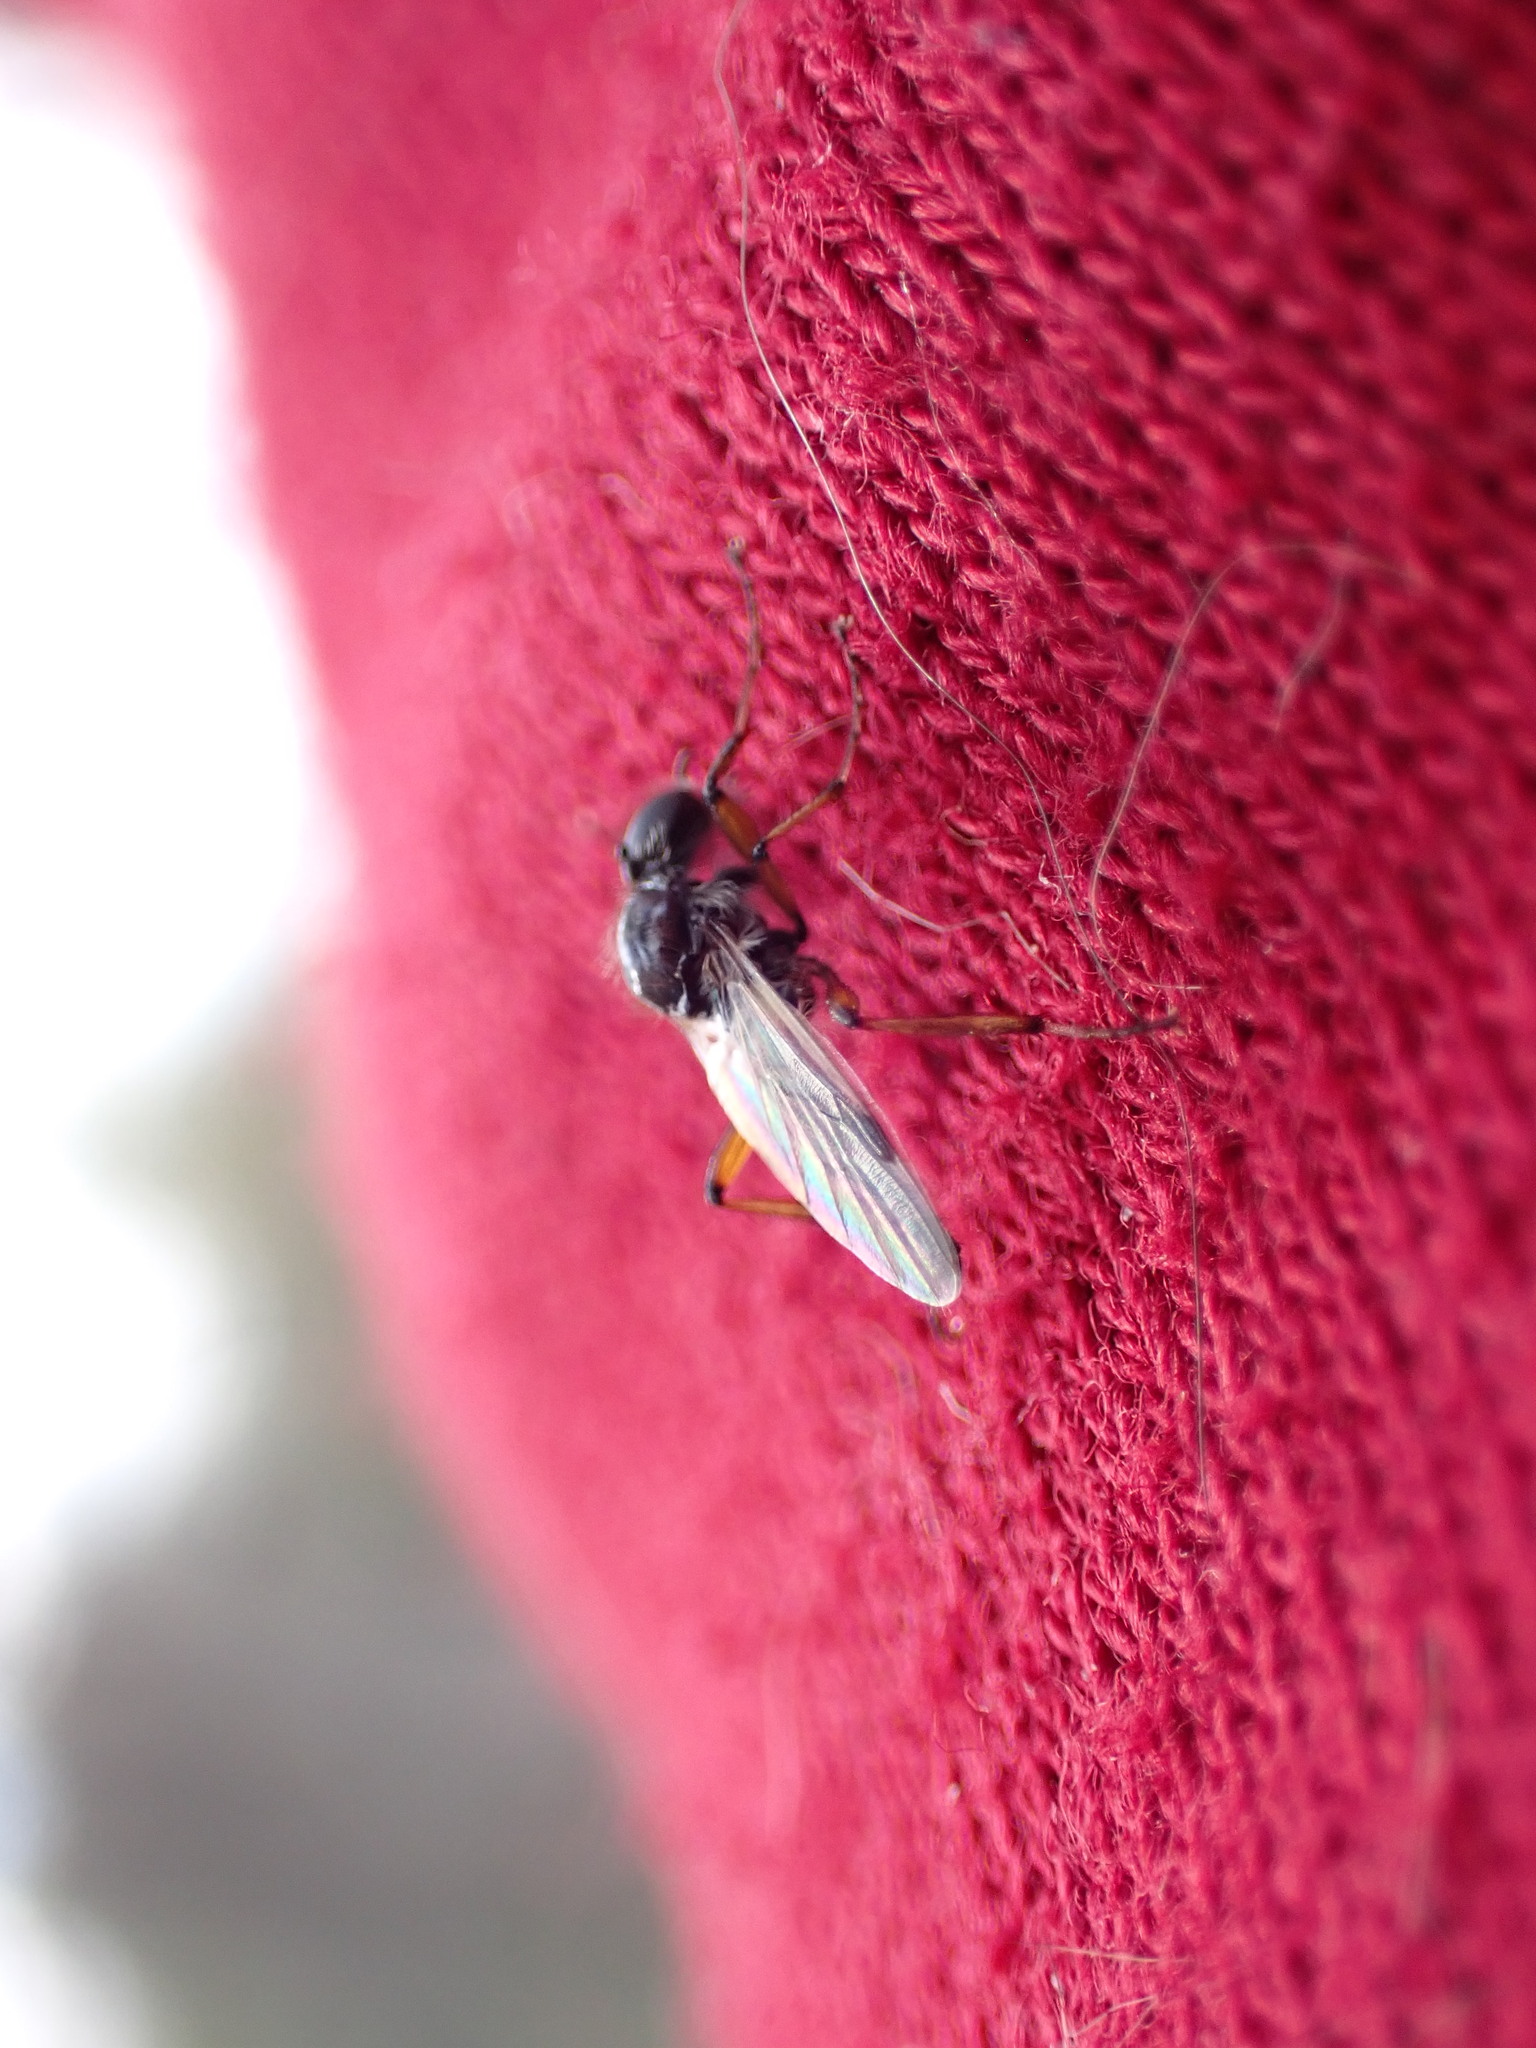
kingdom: Animalia
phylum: Arthropoda
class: Insecta
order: Diptera
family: Bibionidae
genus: Bibio
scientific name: Bibio articulatus
